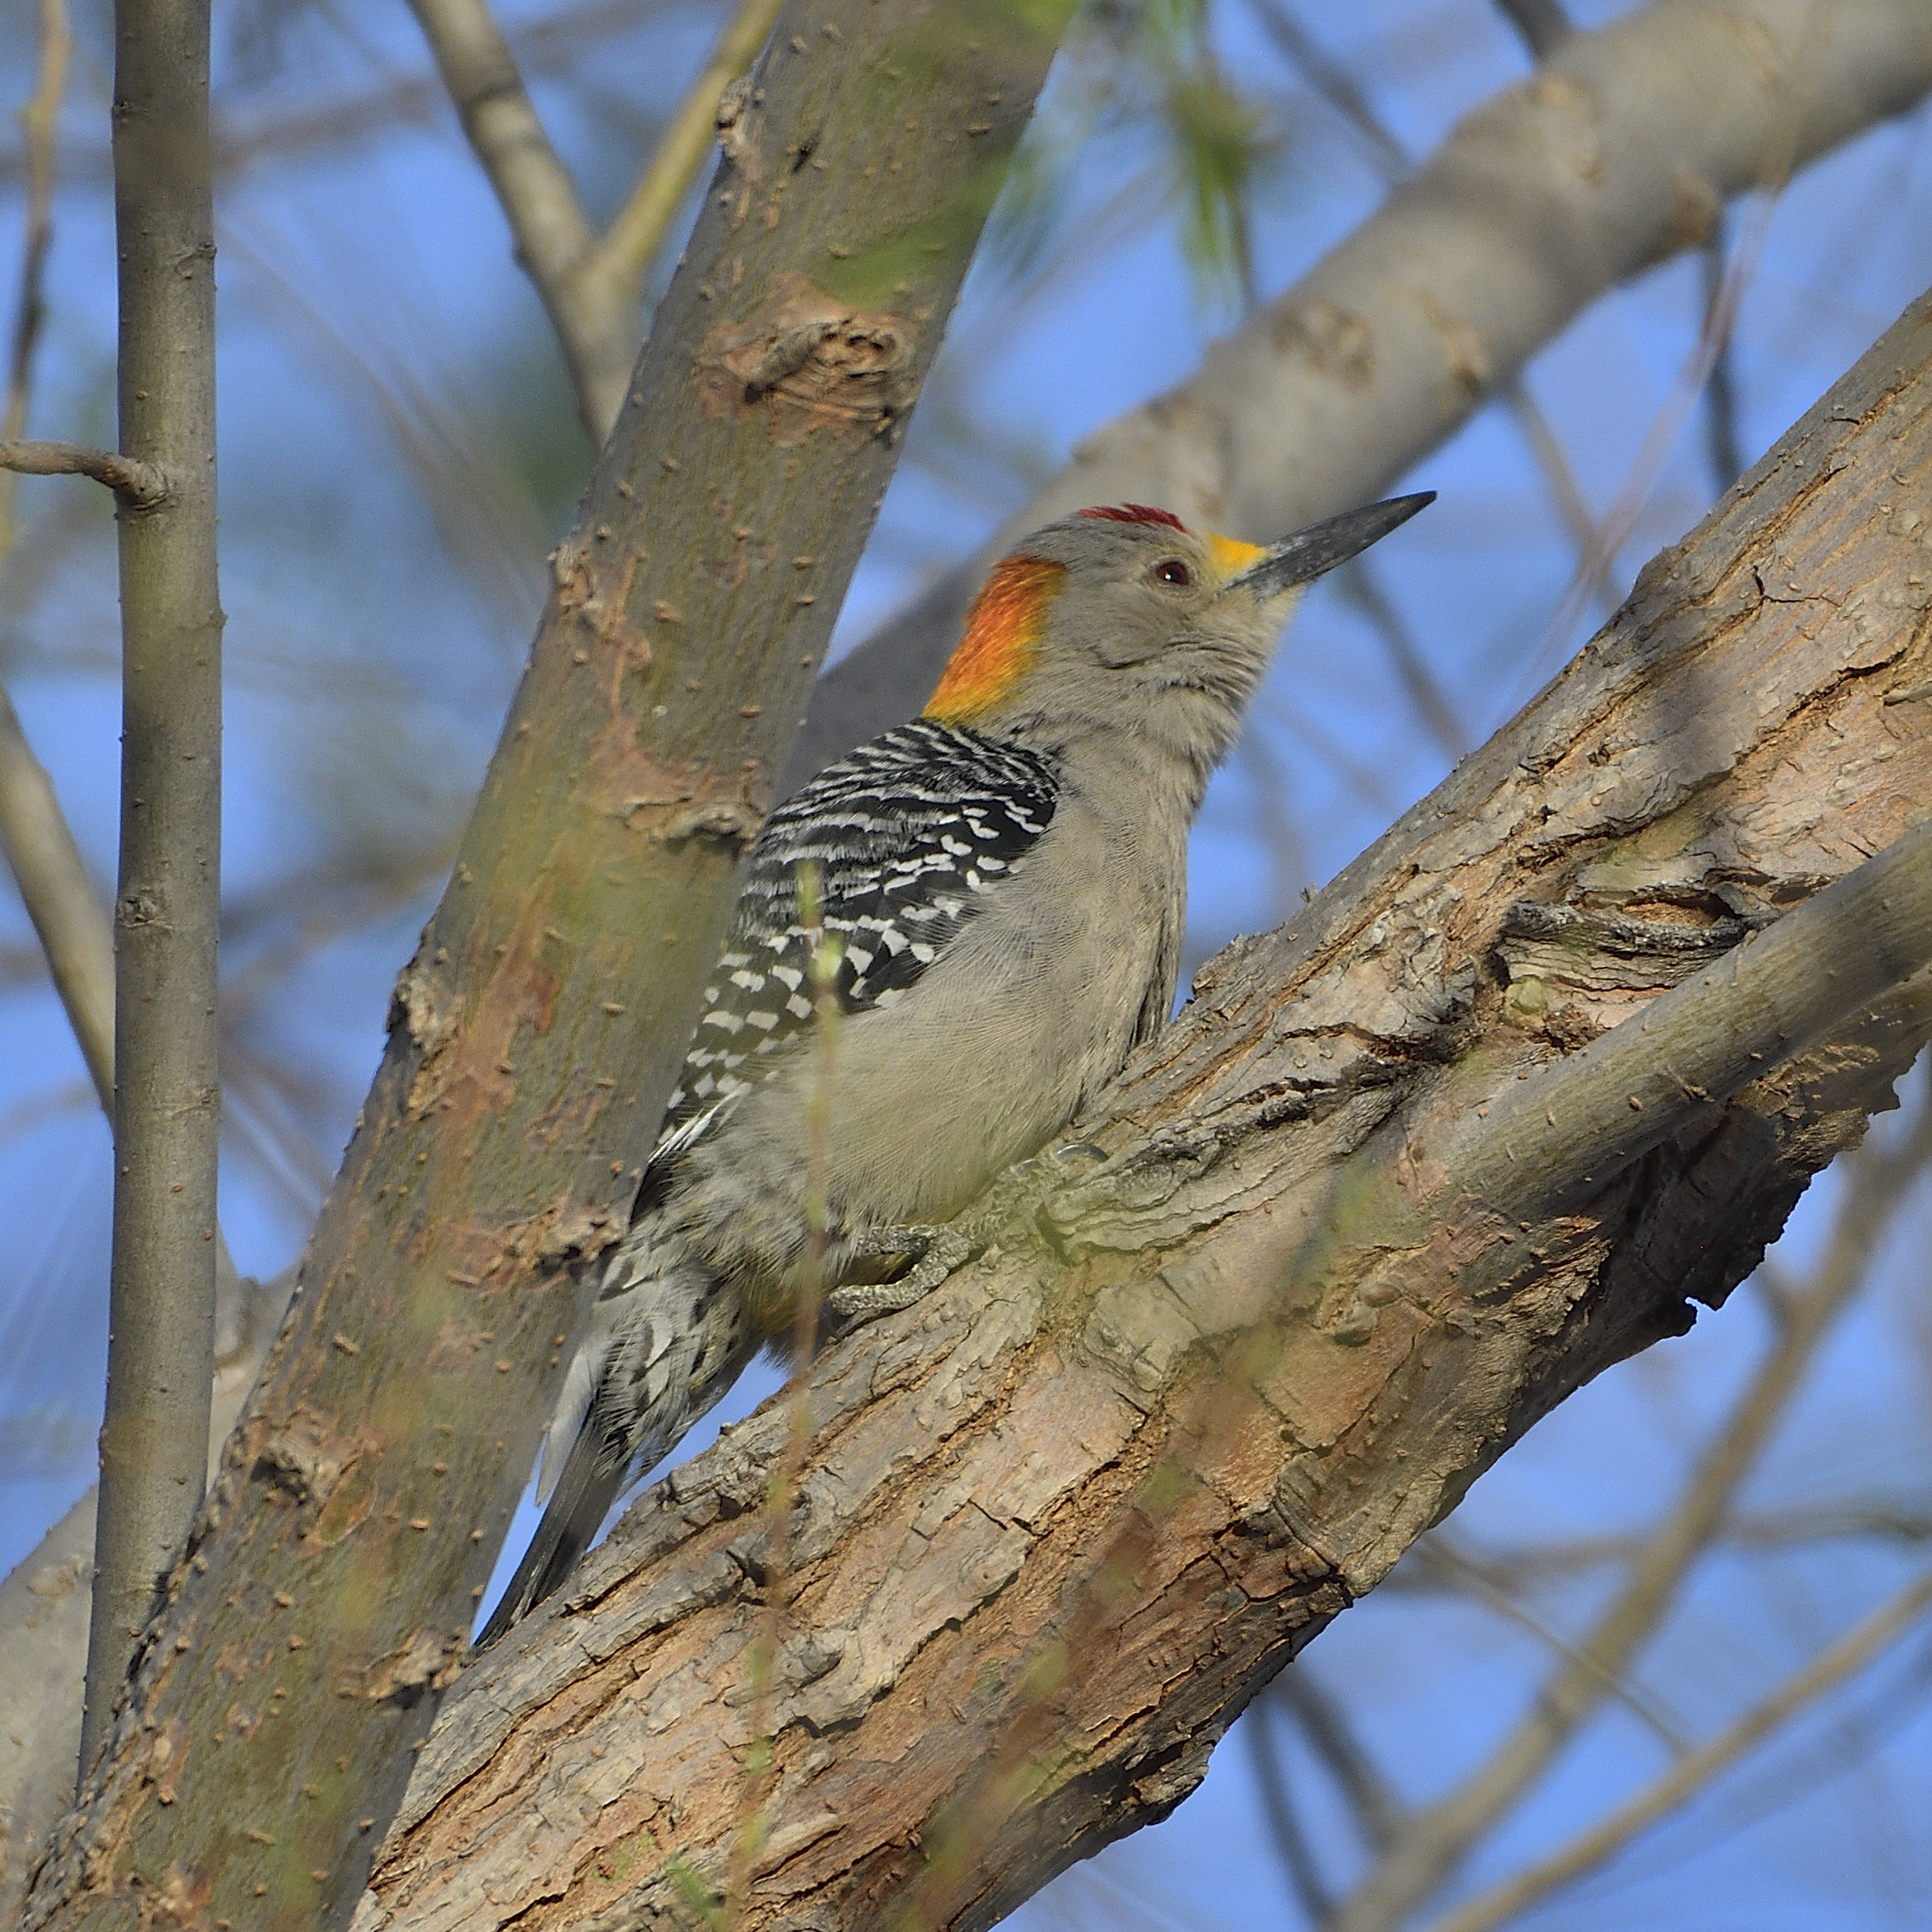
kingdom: Animalia
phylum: Chordata
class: Aves
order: Piciformes
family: Picidae
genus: Melanerpes
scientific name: Melanerpes aurifrons
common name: Golden-fronted woodpecker
